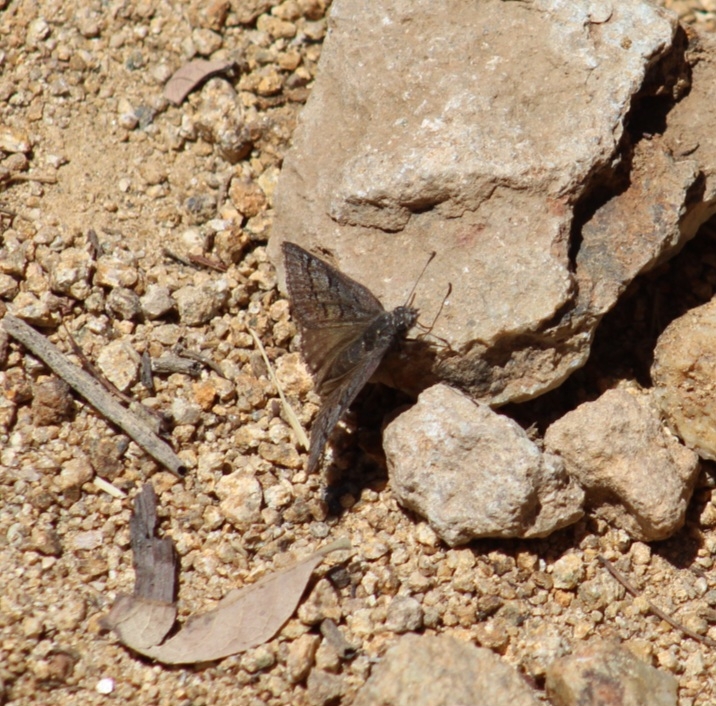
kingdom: Animalia
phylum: Arthropoda
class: Insecta
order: Lepidoptera
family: Hesperiidae
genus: Erynnis
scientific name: Erynnis brizo
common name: Sleepy duskywing
